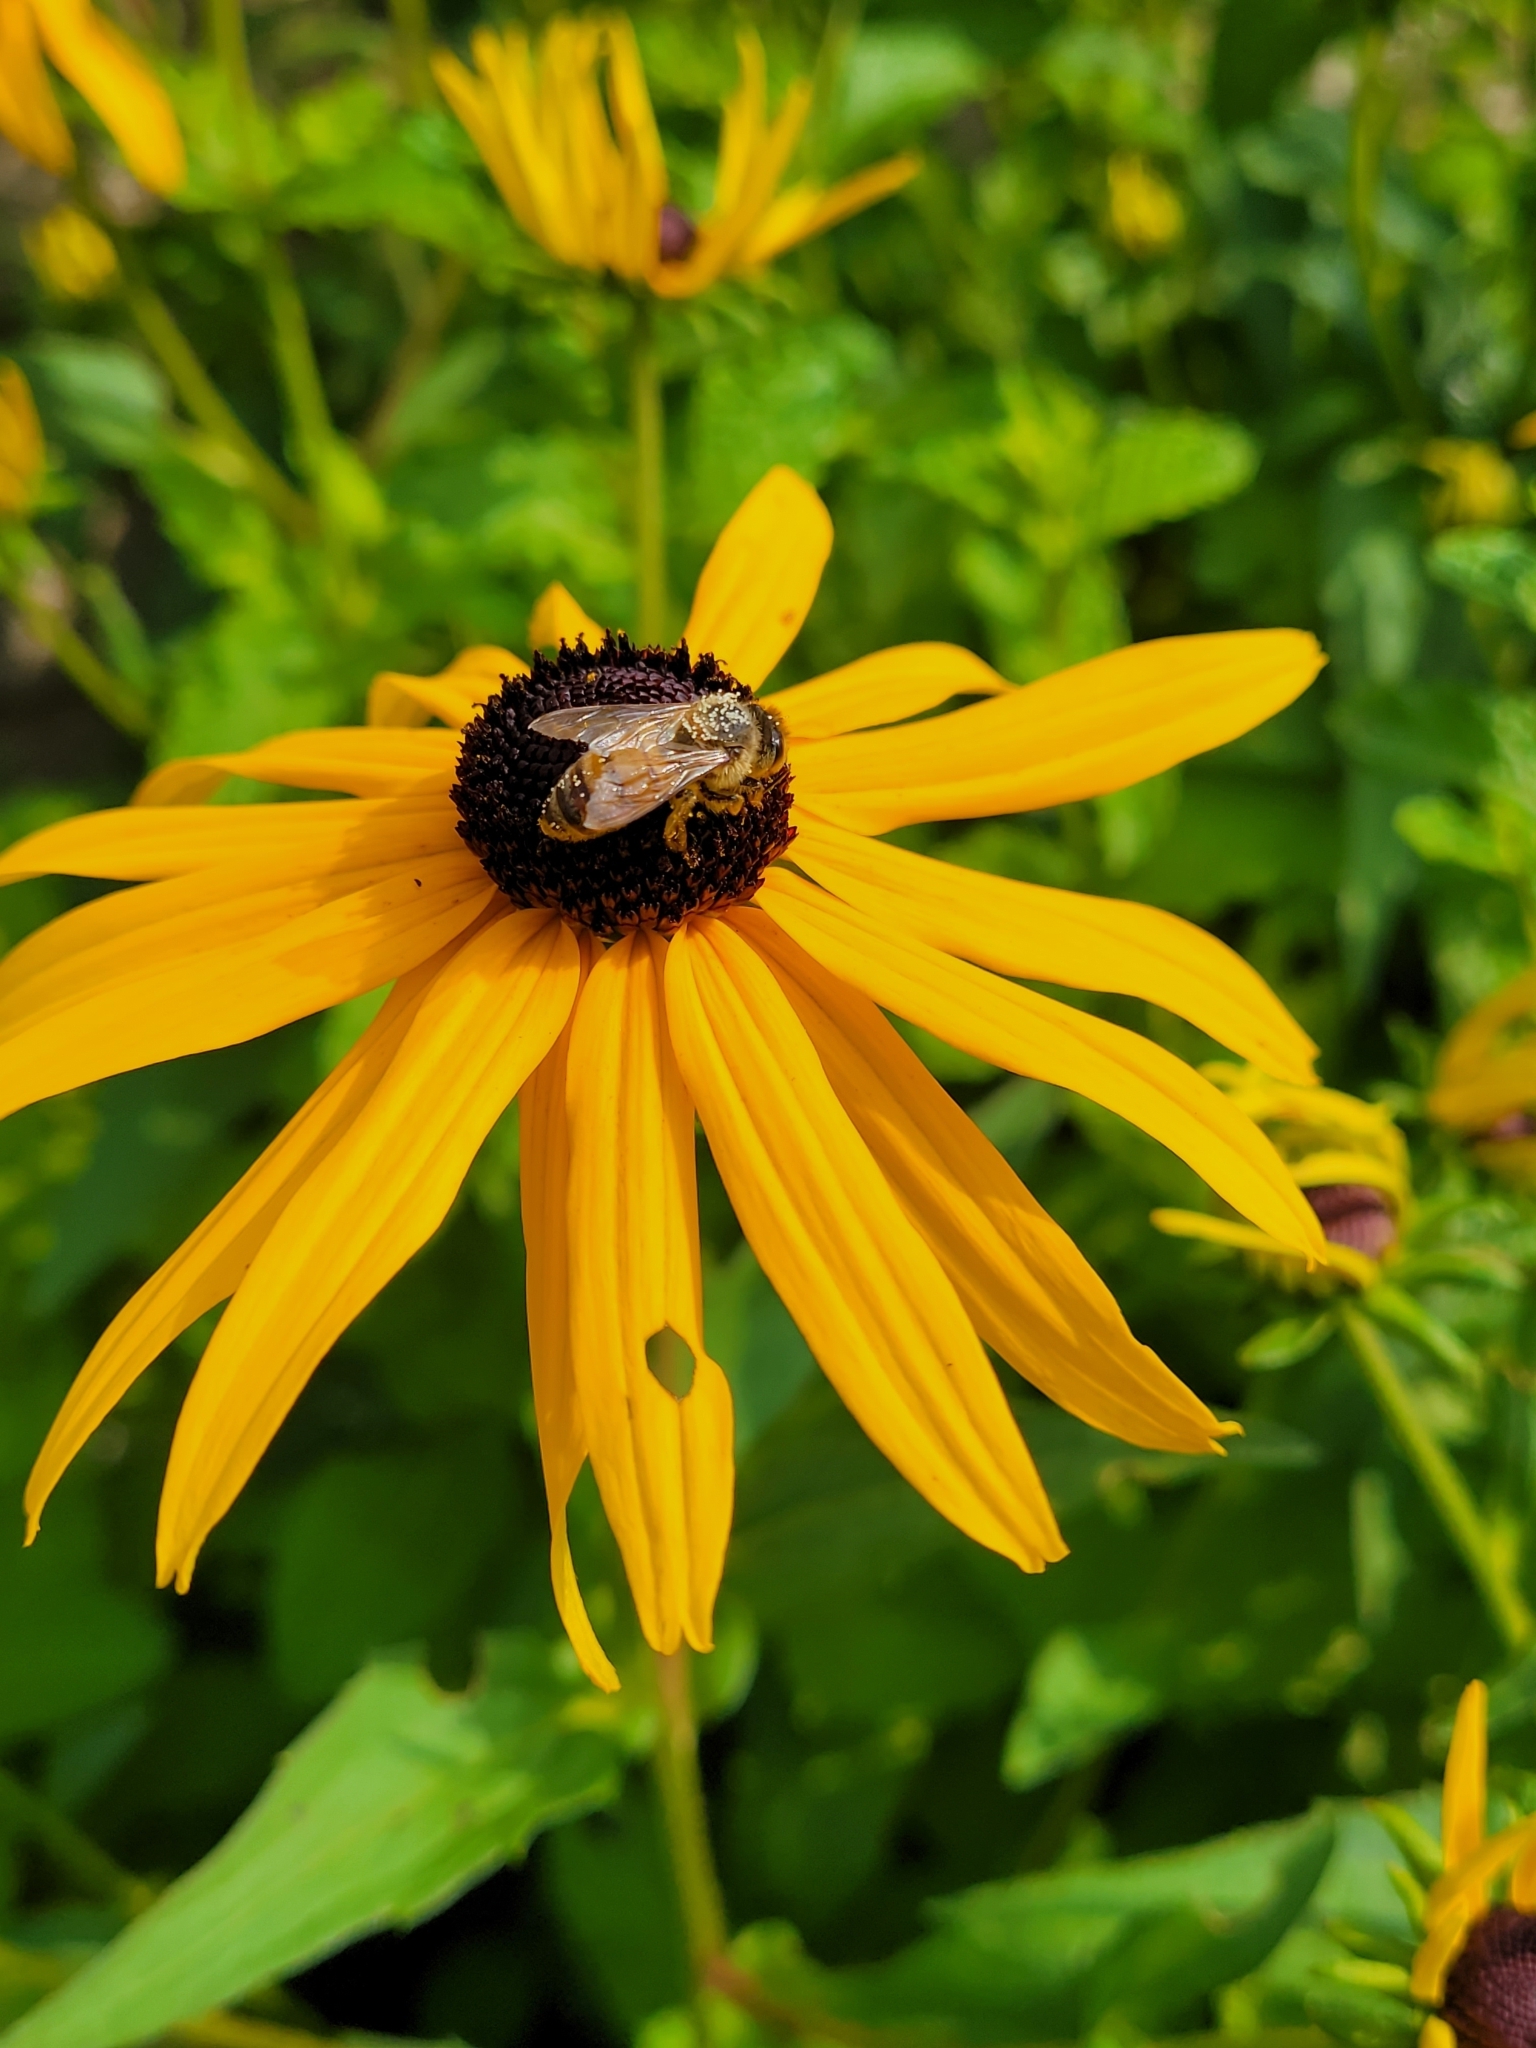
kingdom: Animalia
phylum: Arthropoda
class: Insecta
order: Hymenoptera
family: Apidae
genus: Apis
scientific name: Apis mellifera
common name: Honey bee
